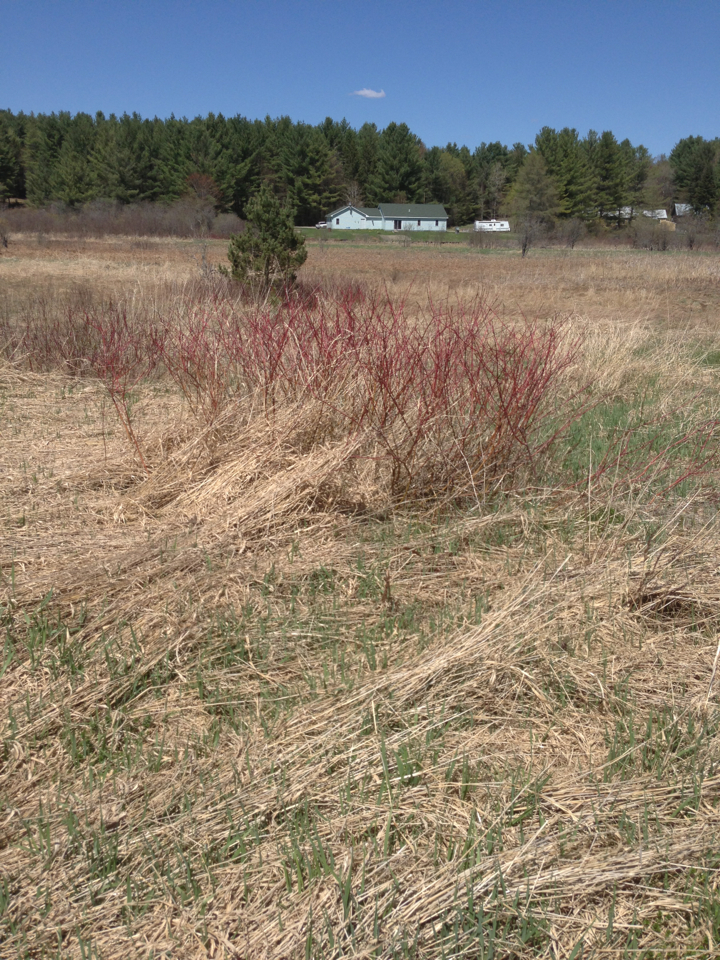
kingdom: Plantae
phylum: Tracheophyta
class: Magnoliopsida
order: Cornales
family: Cornaceae
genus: Cornus
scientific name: Cornus sericea
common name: Red-osier dogwood
